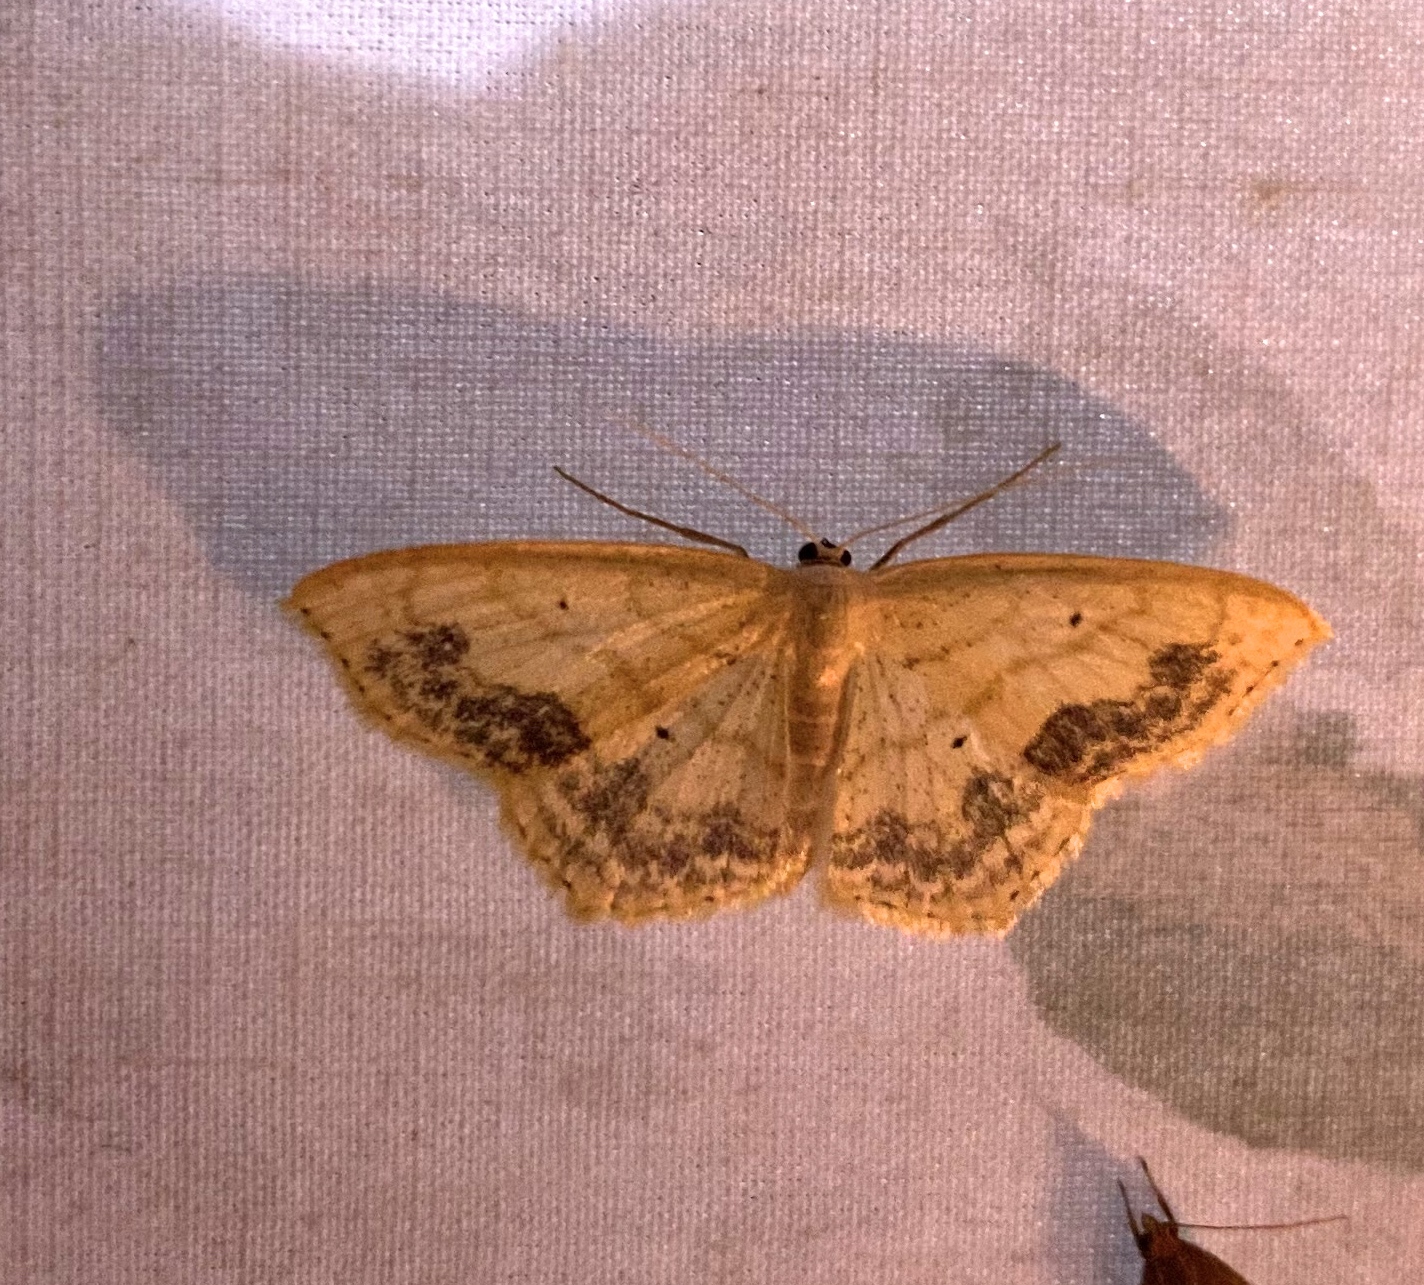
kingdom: Animalia
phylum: Arthropoda
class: Insecta
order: Lepidoptera
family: Geometridae
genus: Scopula
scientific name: Scopula limboundata
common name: Large lace border
